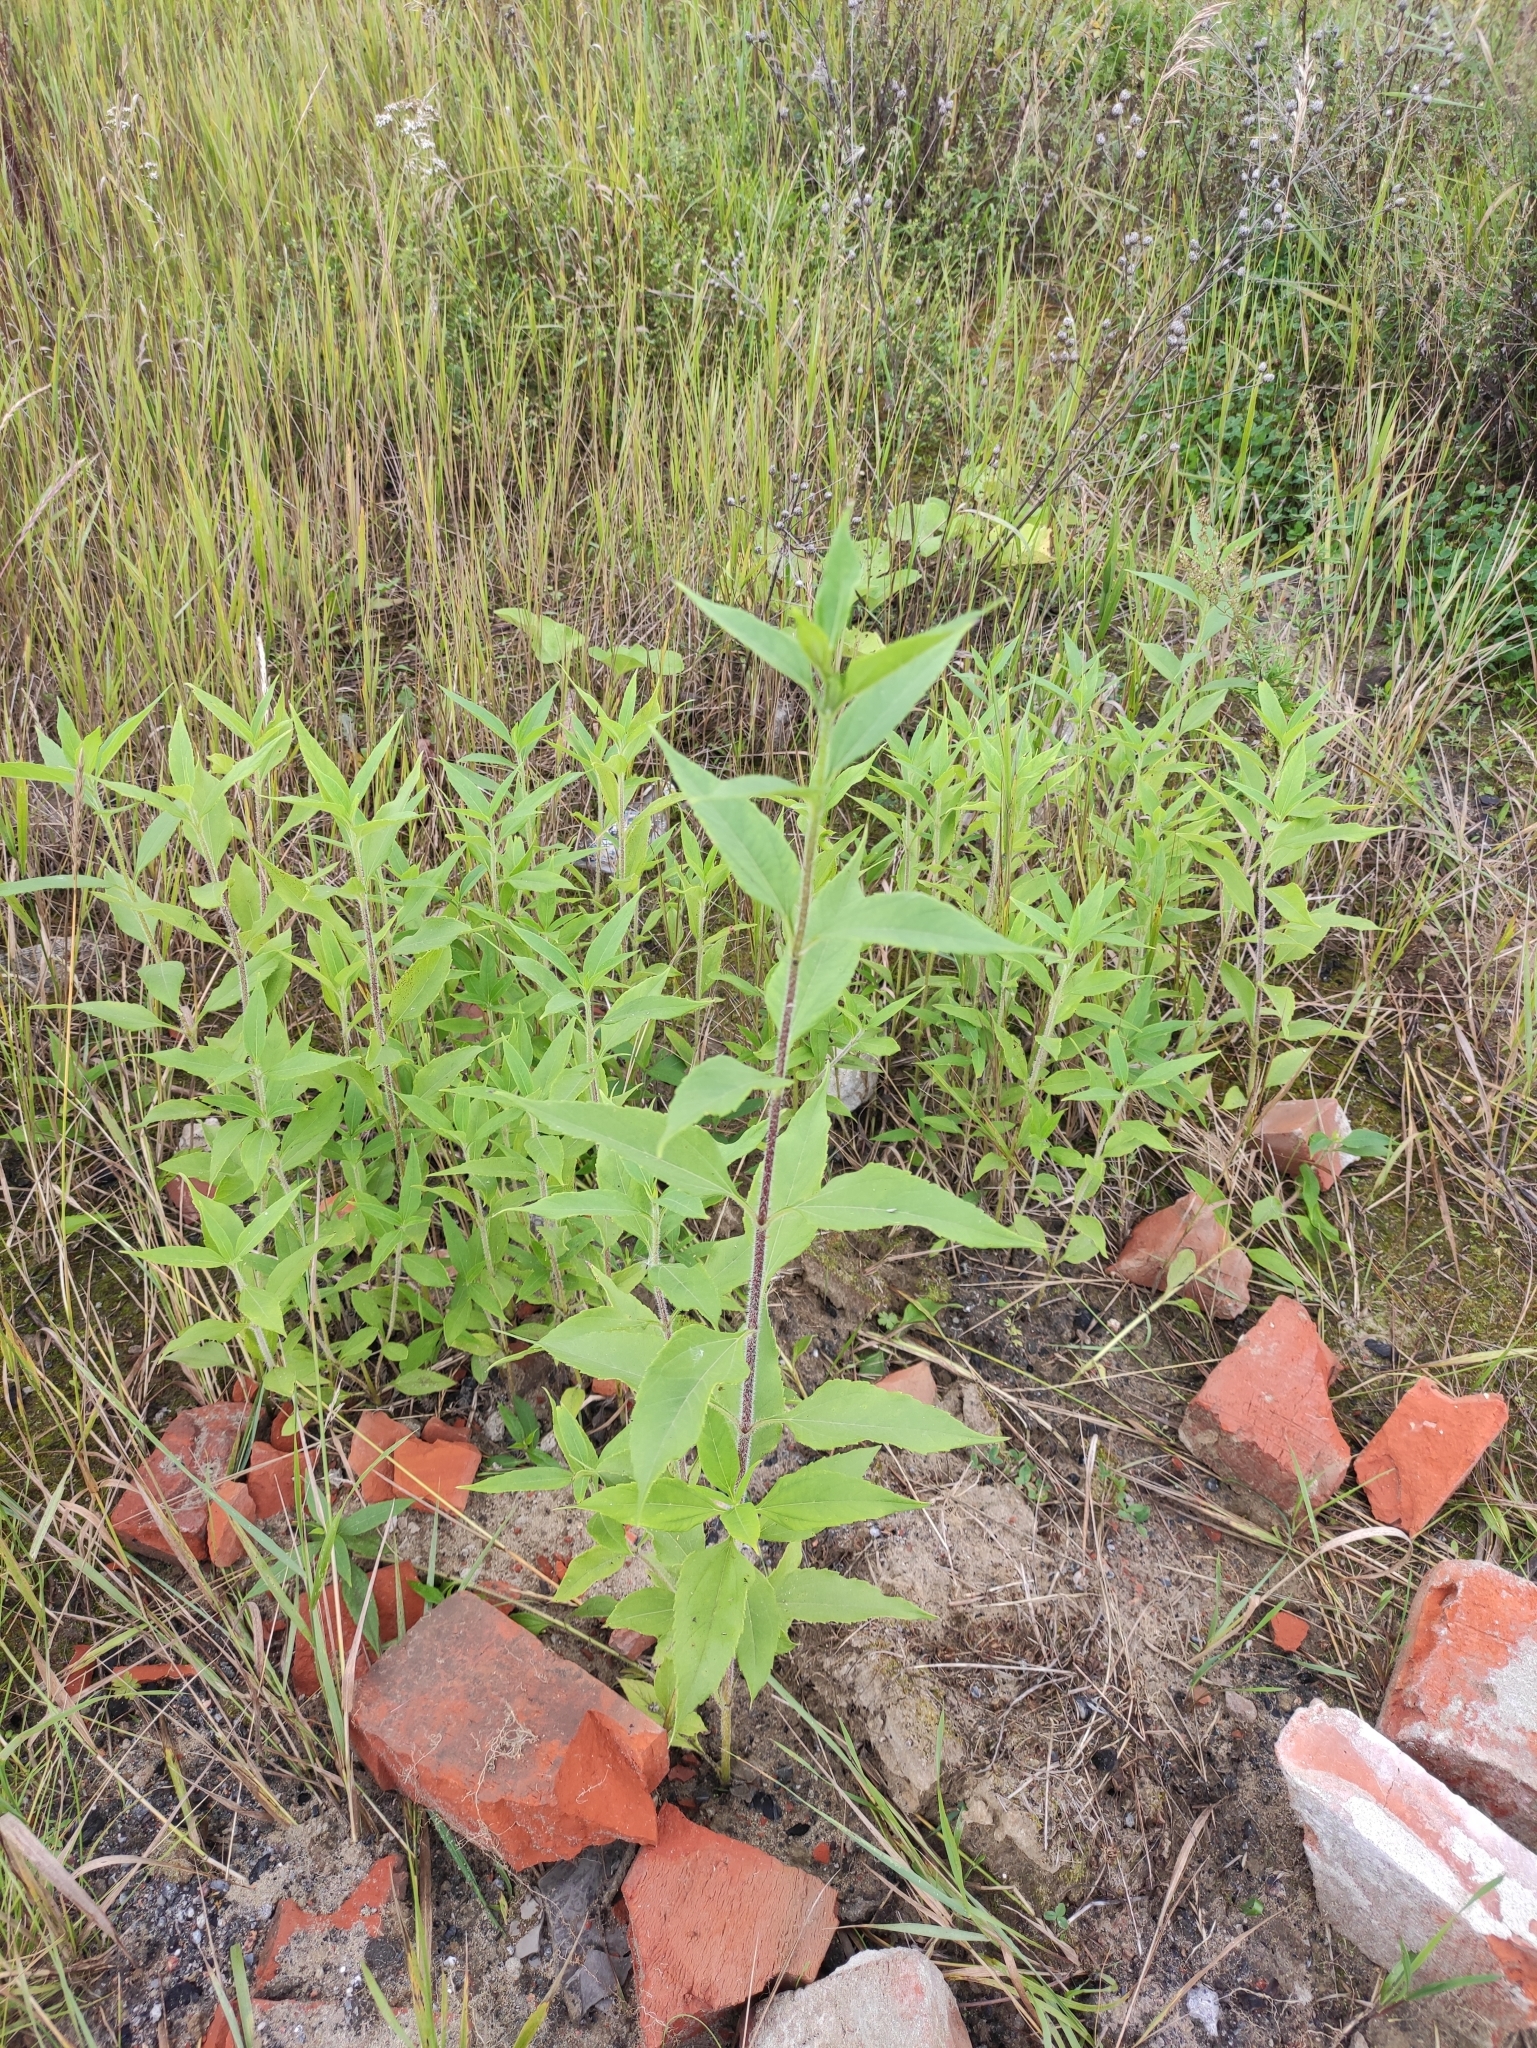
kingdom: Plantae
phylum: Tracheophyta
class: Magnoliopsida
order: Asterales
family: Asteraceae
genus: Helianthus
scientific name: Helianthus tuberosus
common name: Jerusalem artichoke
